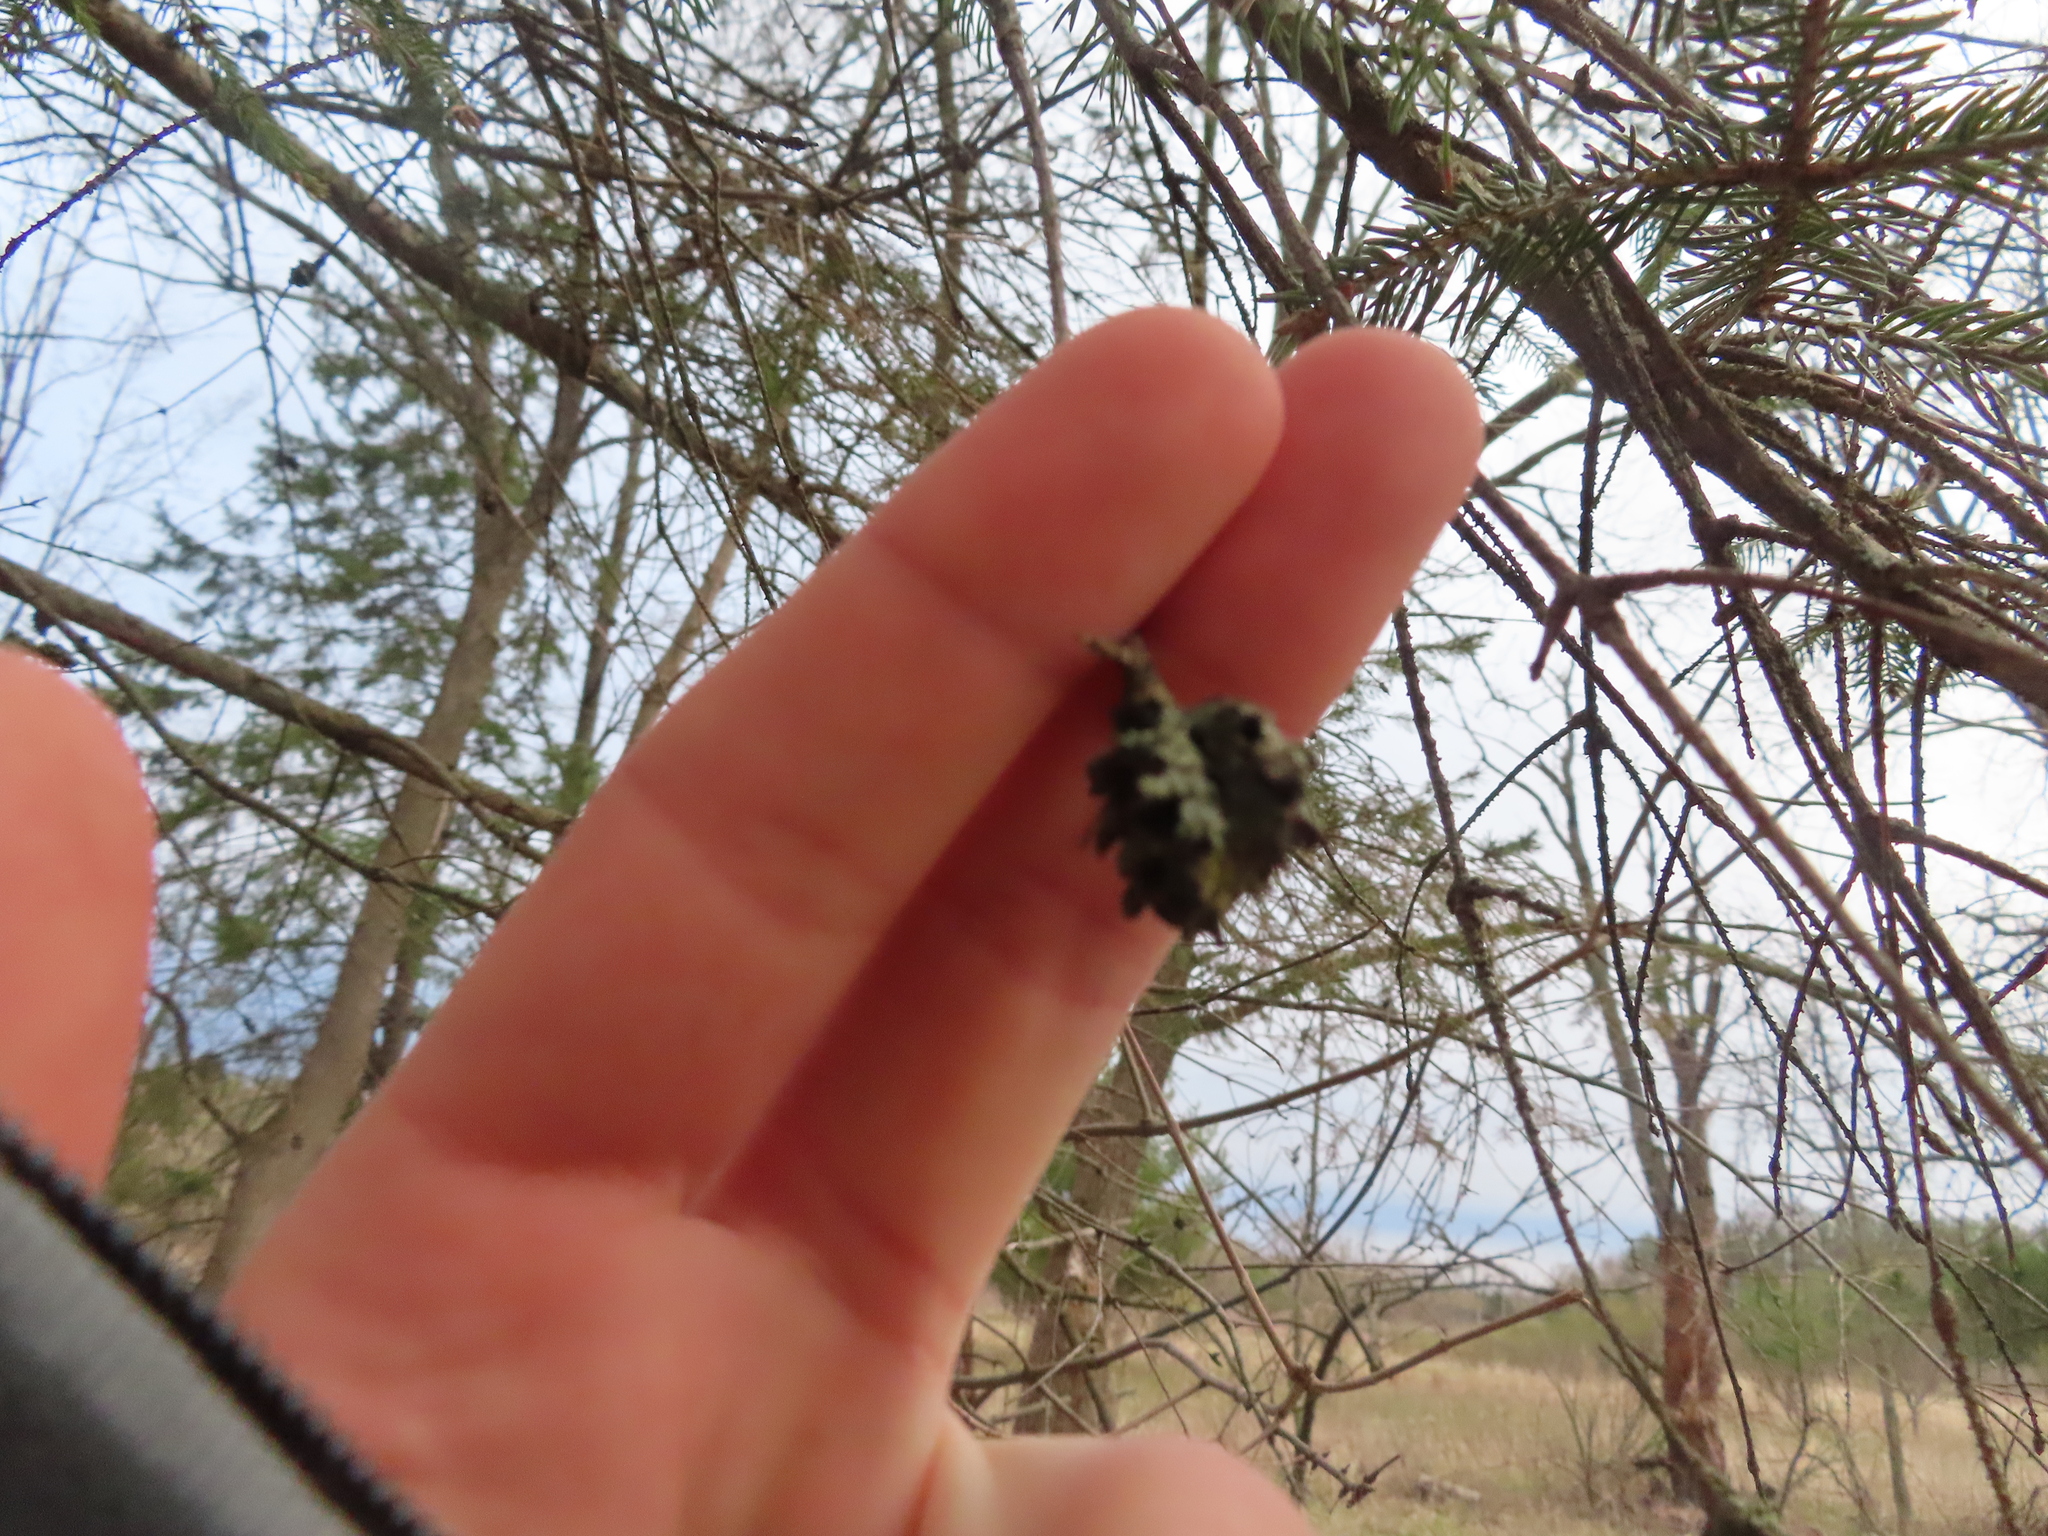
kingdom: Animalia
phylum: Arthropoda
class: Insecta
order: Hemiptera
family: Adelgidae
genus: Adelges
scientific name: Adelges abietis
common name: Eastern spruce gall adelgid
